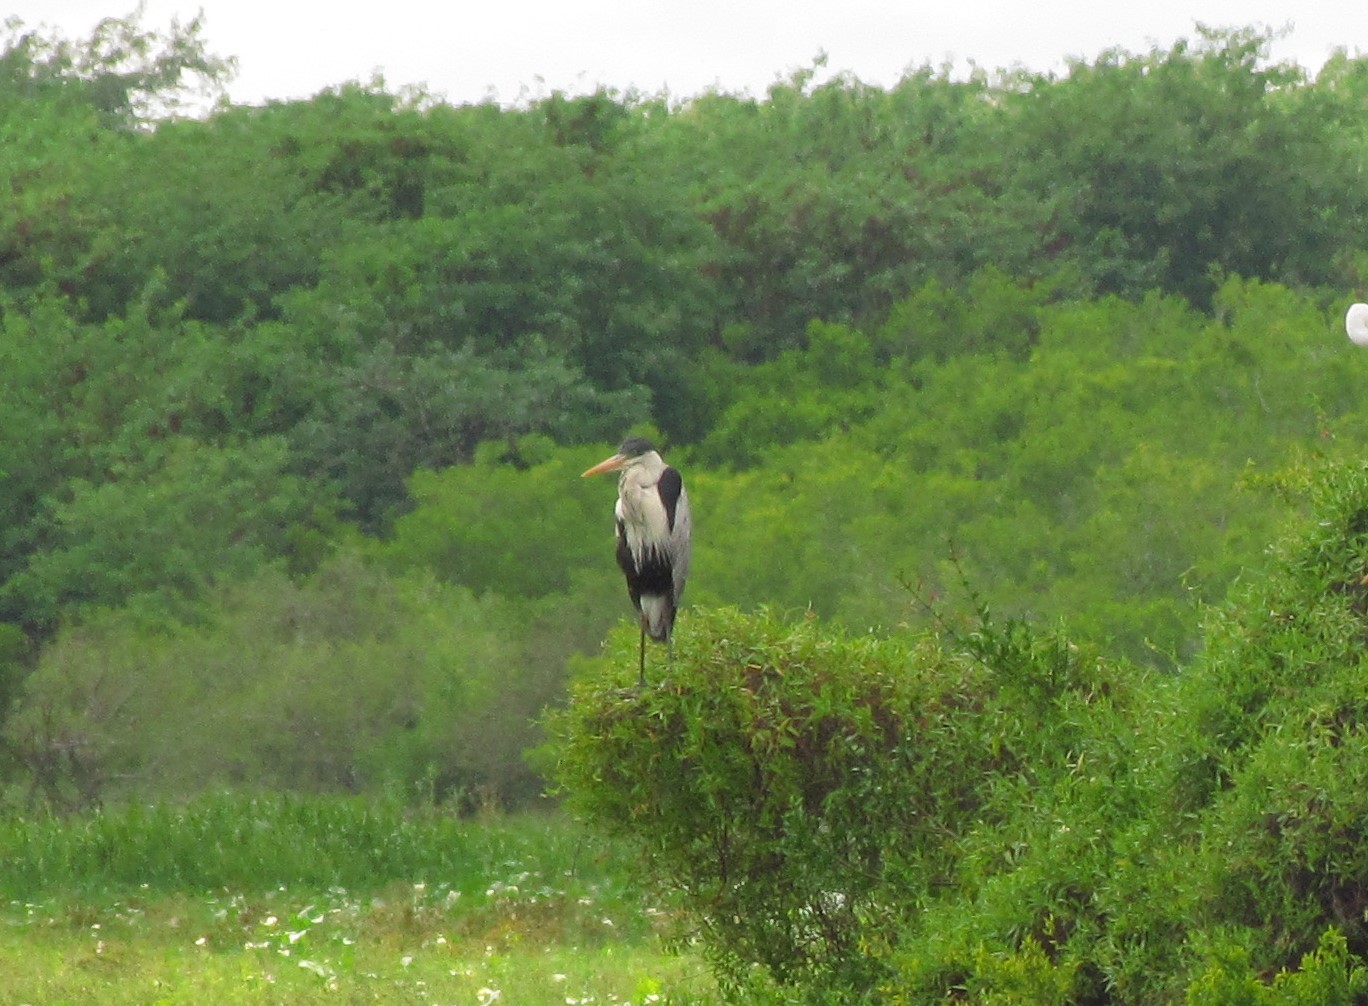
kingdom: Animalia
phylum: Chordata
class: Aves
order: Pelecaniformes
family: Ardeidae
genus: Ardea
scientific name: Ardea cocoi
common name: Cocoi heron
